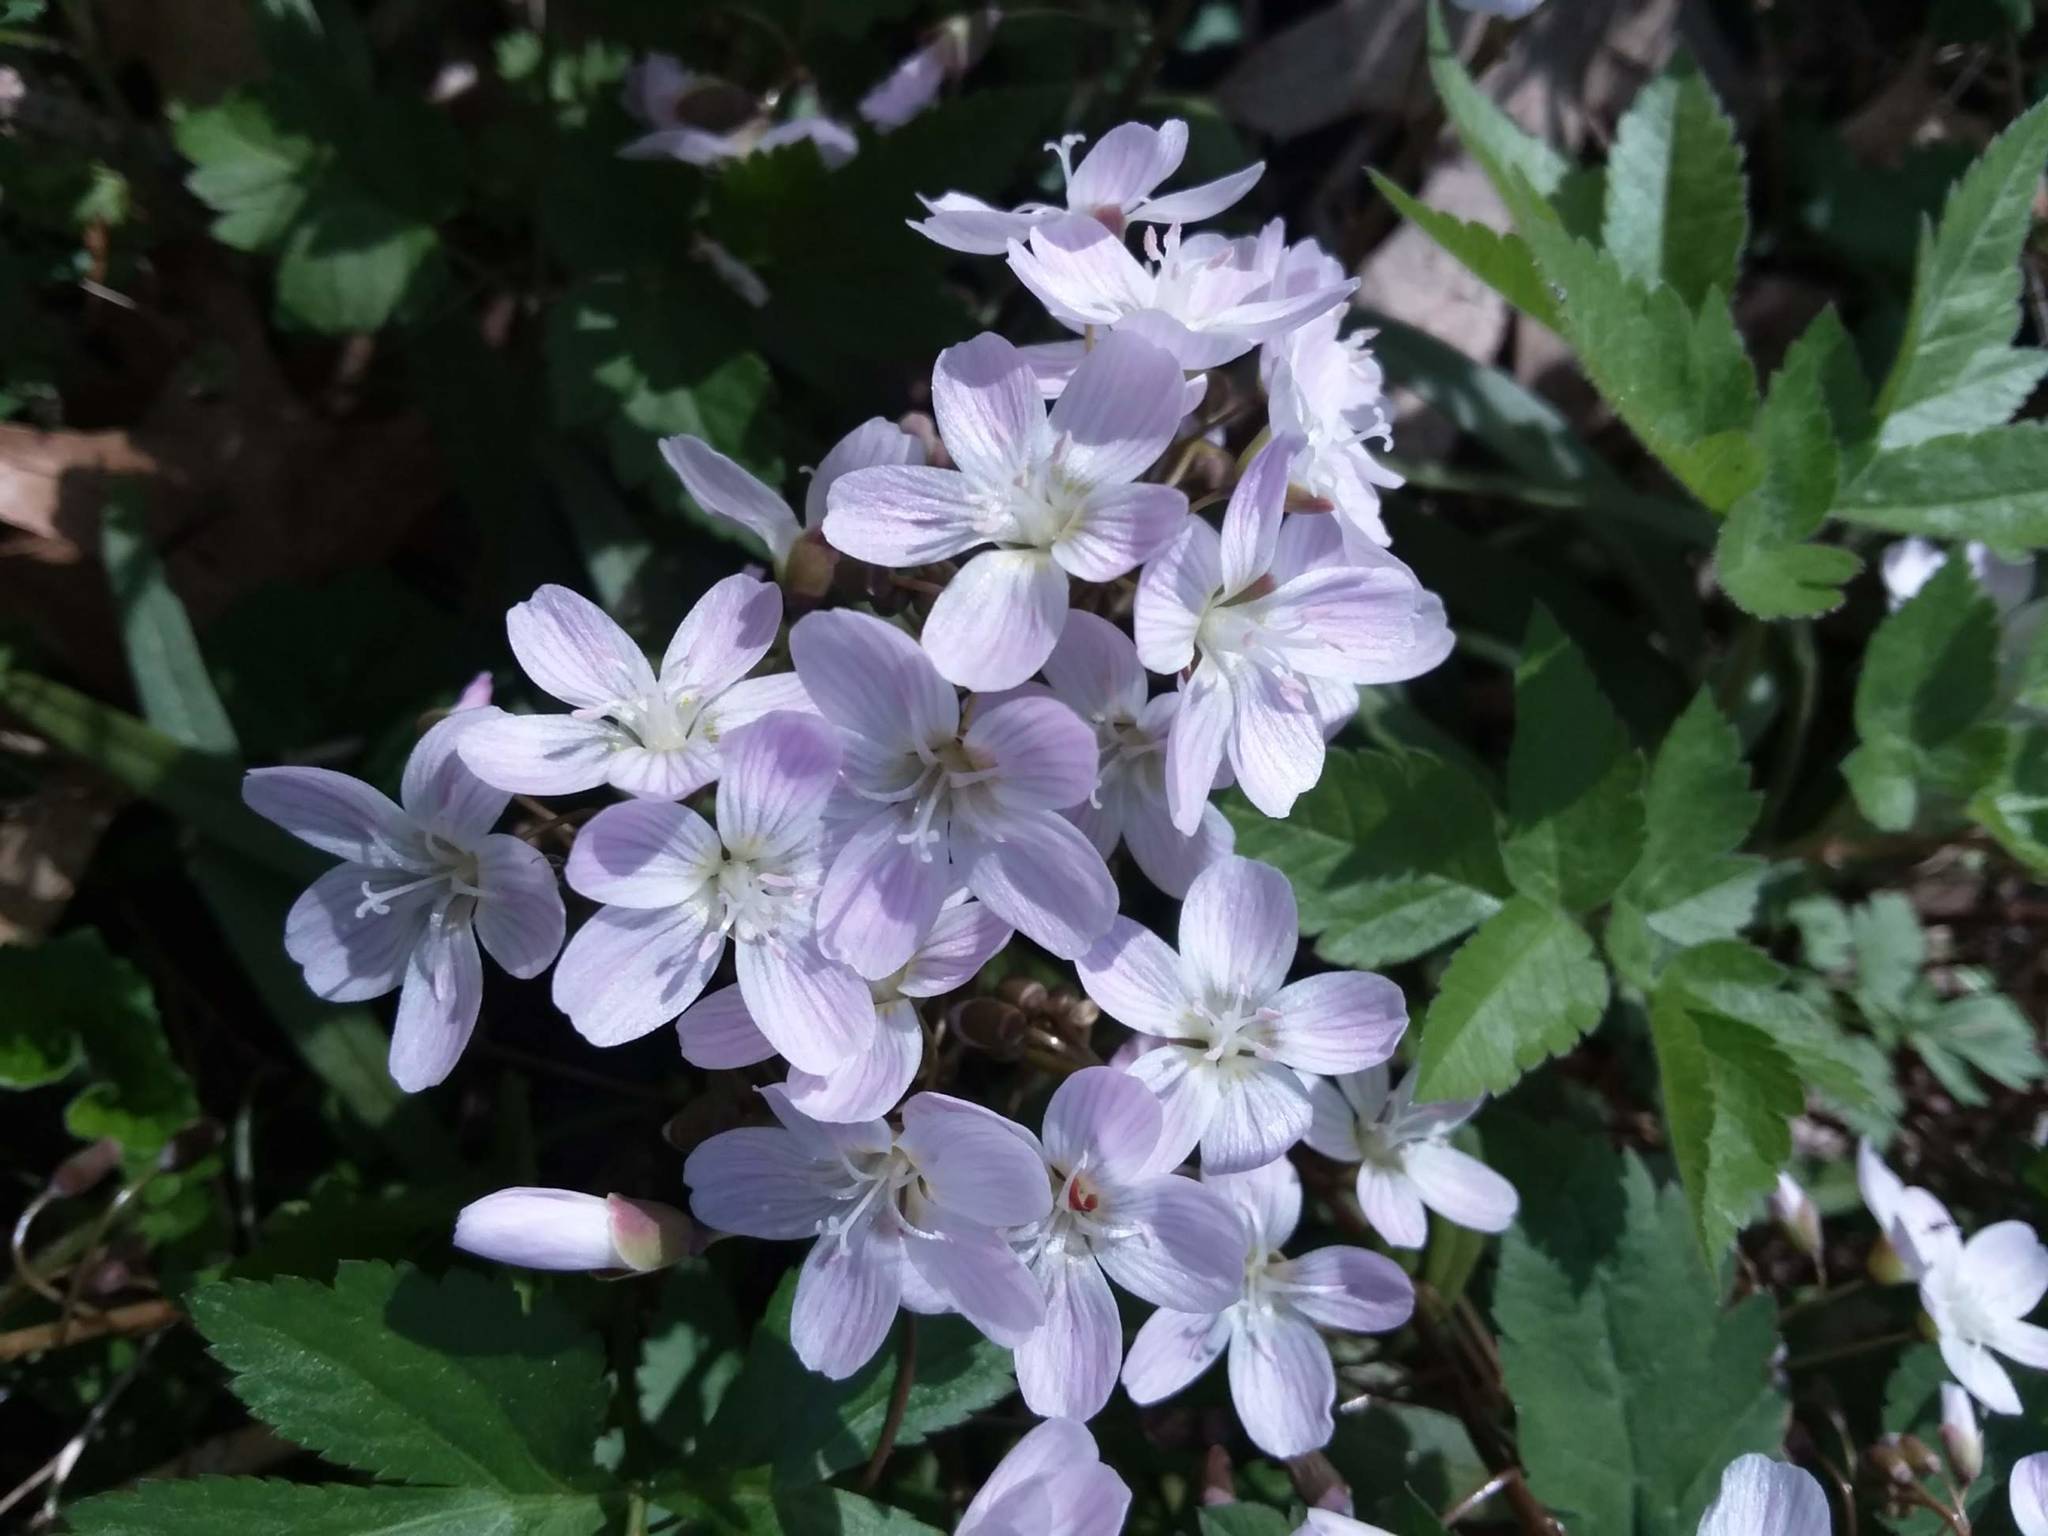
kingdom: Plantae
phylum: Tracheophyta
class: Magnoliopsida
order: Caryophyllales
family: Montiaceae
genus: Claytonia
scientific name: Claytonia virginica
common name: Virginia springbeauty
